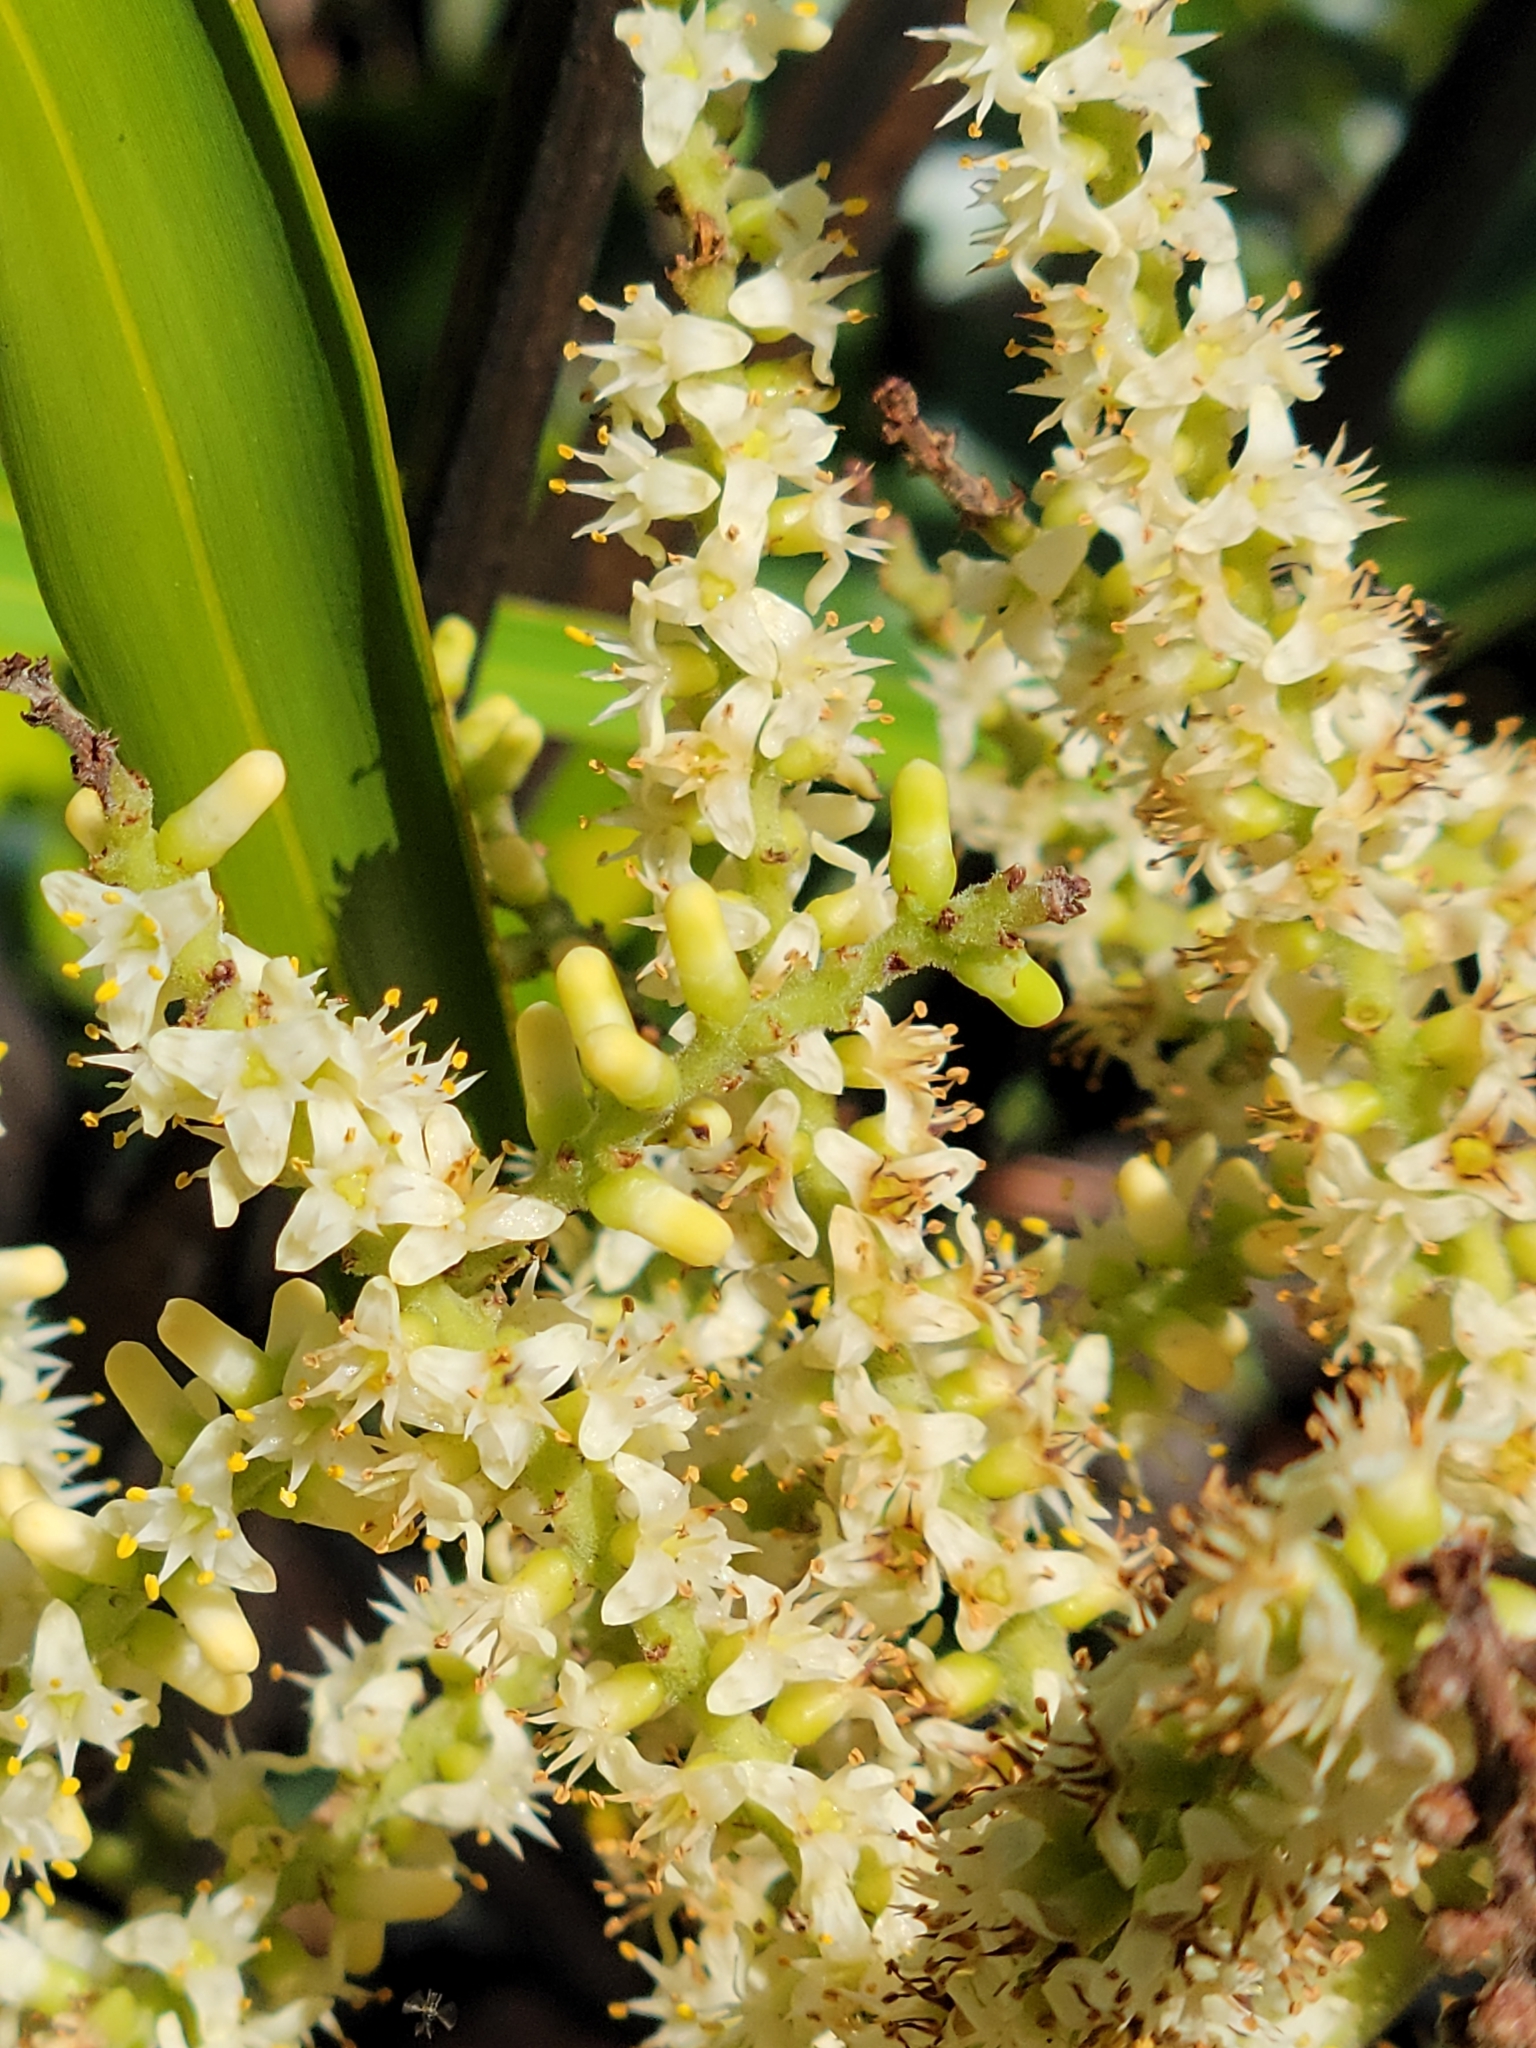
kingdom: Plantae
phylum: Tracheophyta
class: Liliopsida
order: Arecales
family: Arecaceae
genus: Serenoa
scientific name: Serenoa repens
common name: Saw-palmetto
